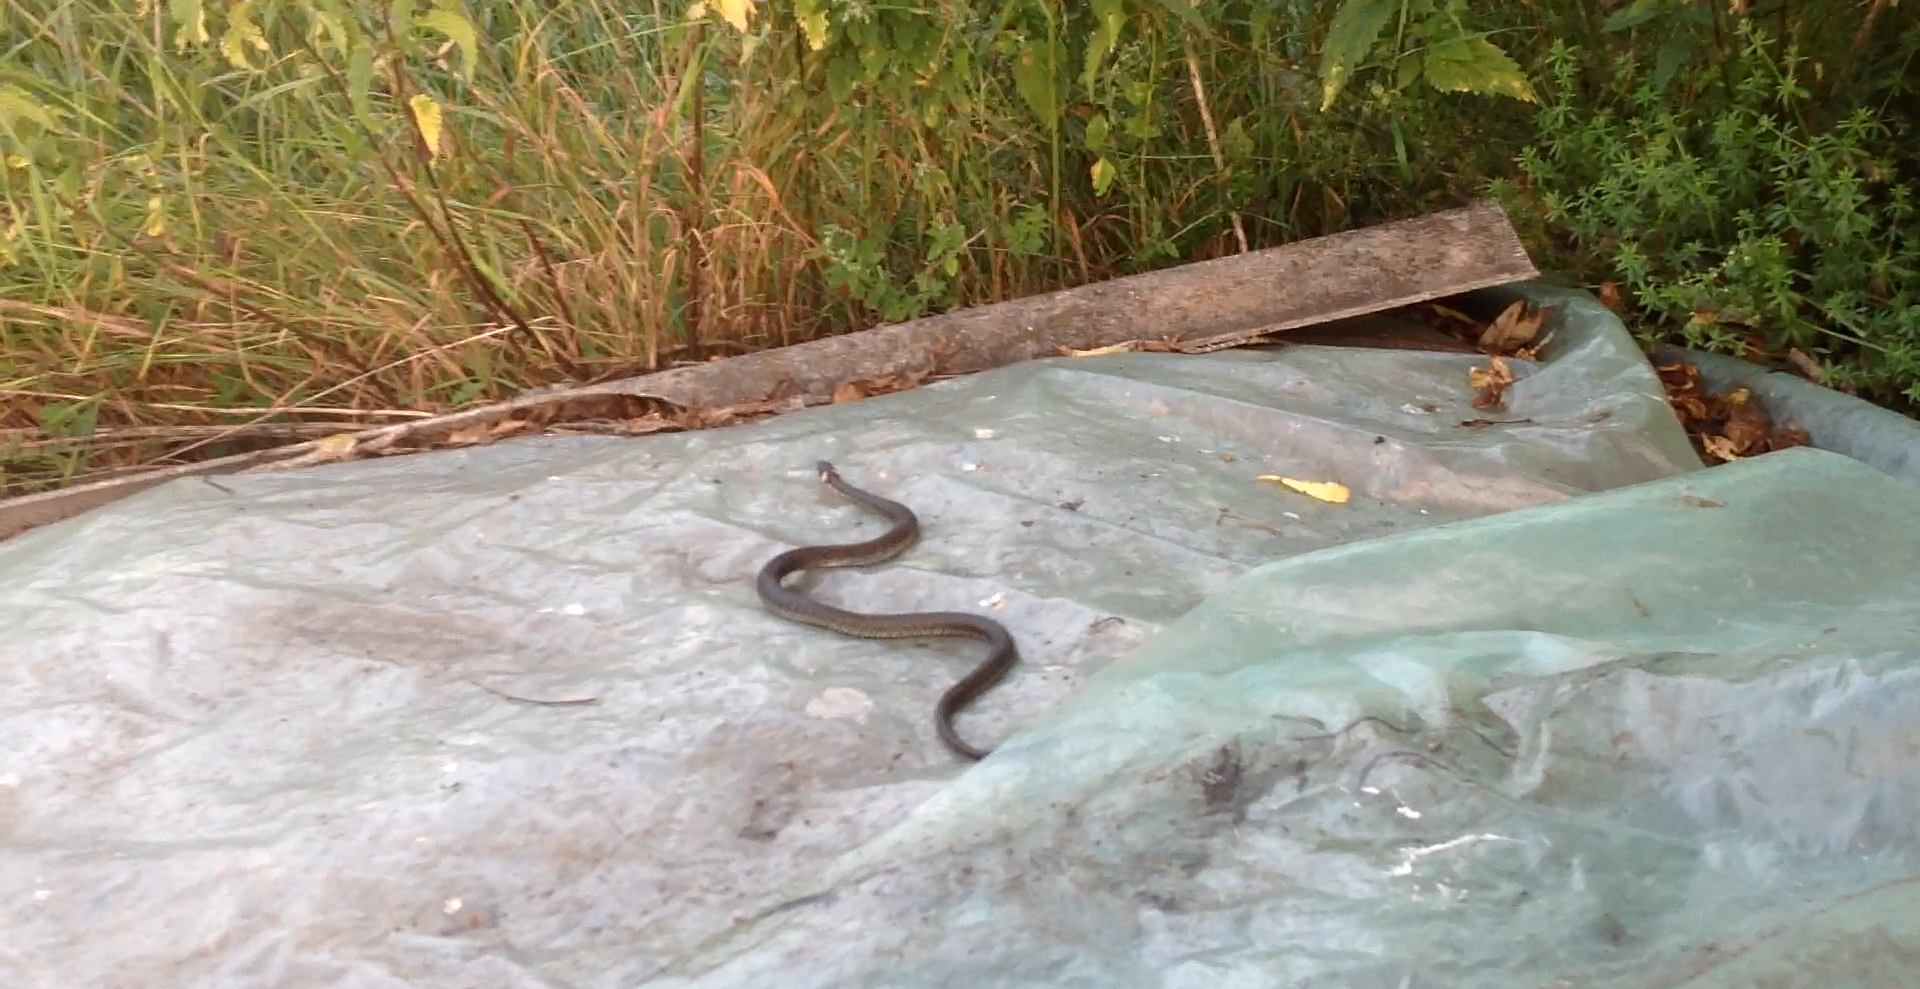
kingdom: Animalia
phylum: Chordata
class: Squamata
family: Colubridae
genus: Natrix
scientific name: Natrix natrix
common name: Grass snake
